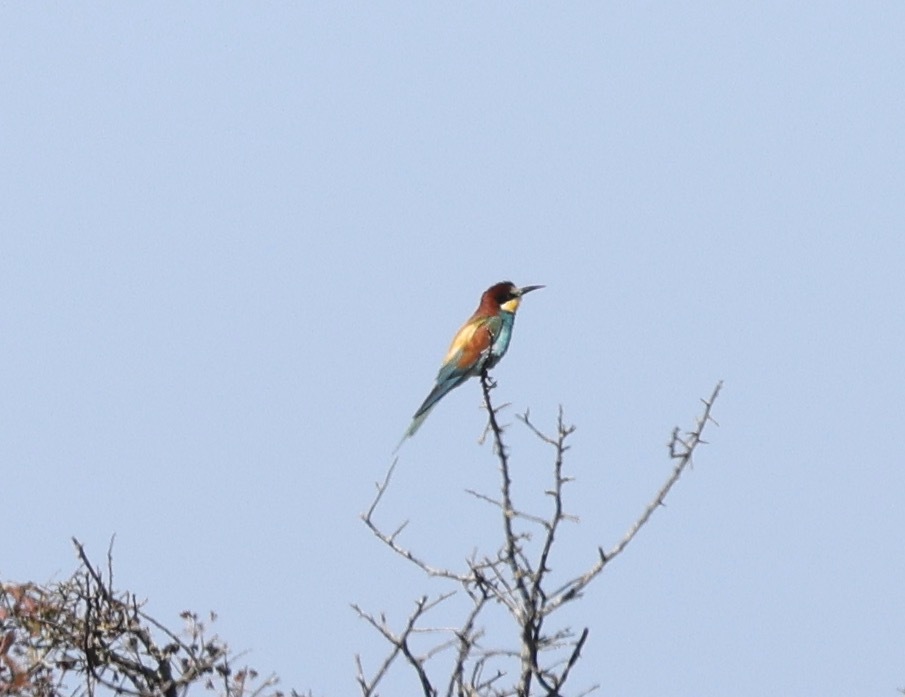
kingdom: Animalia
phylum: Chordata
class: Aves
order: Coraciiformes
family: Meropidae
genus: Merops
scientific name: Merops apiaster
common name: European bee-eater
